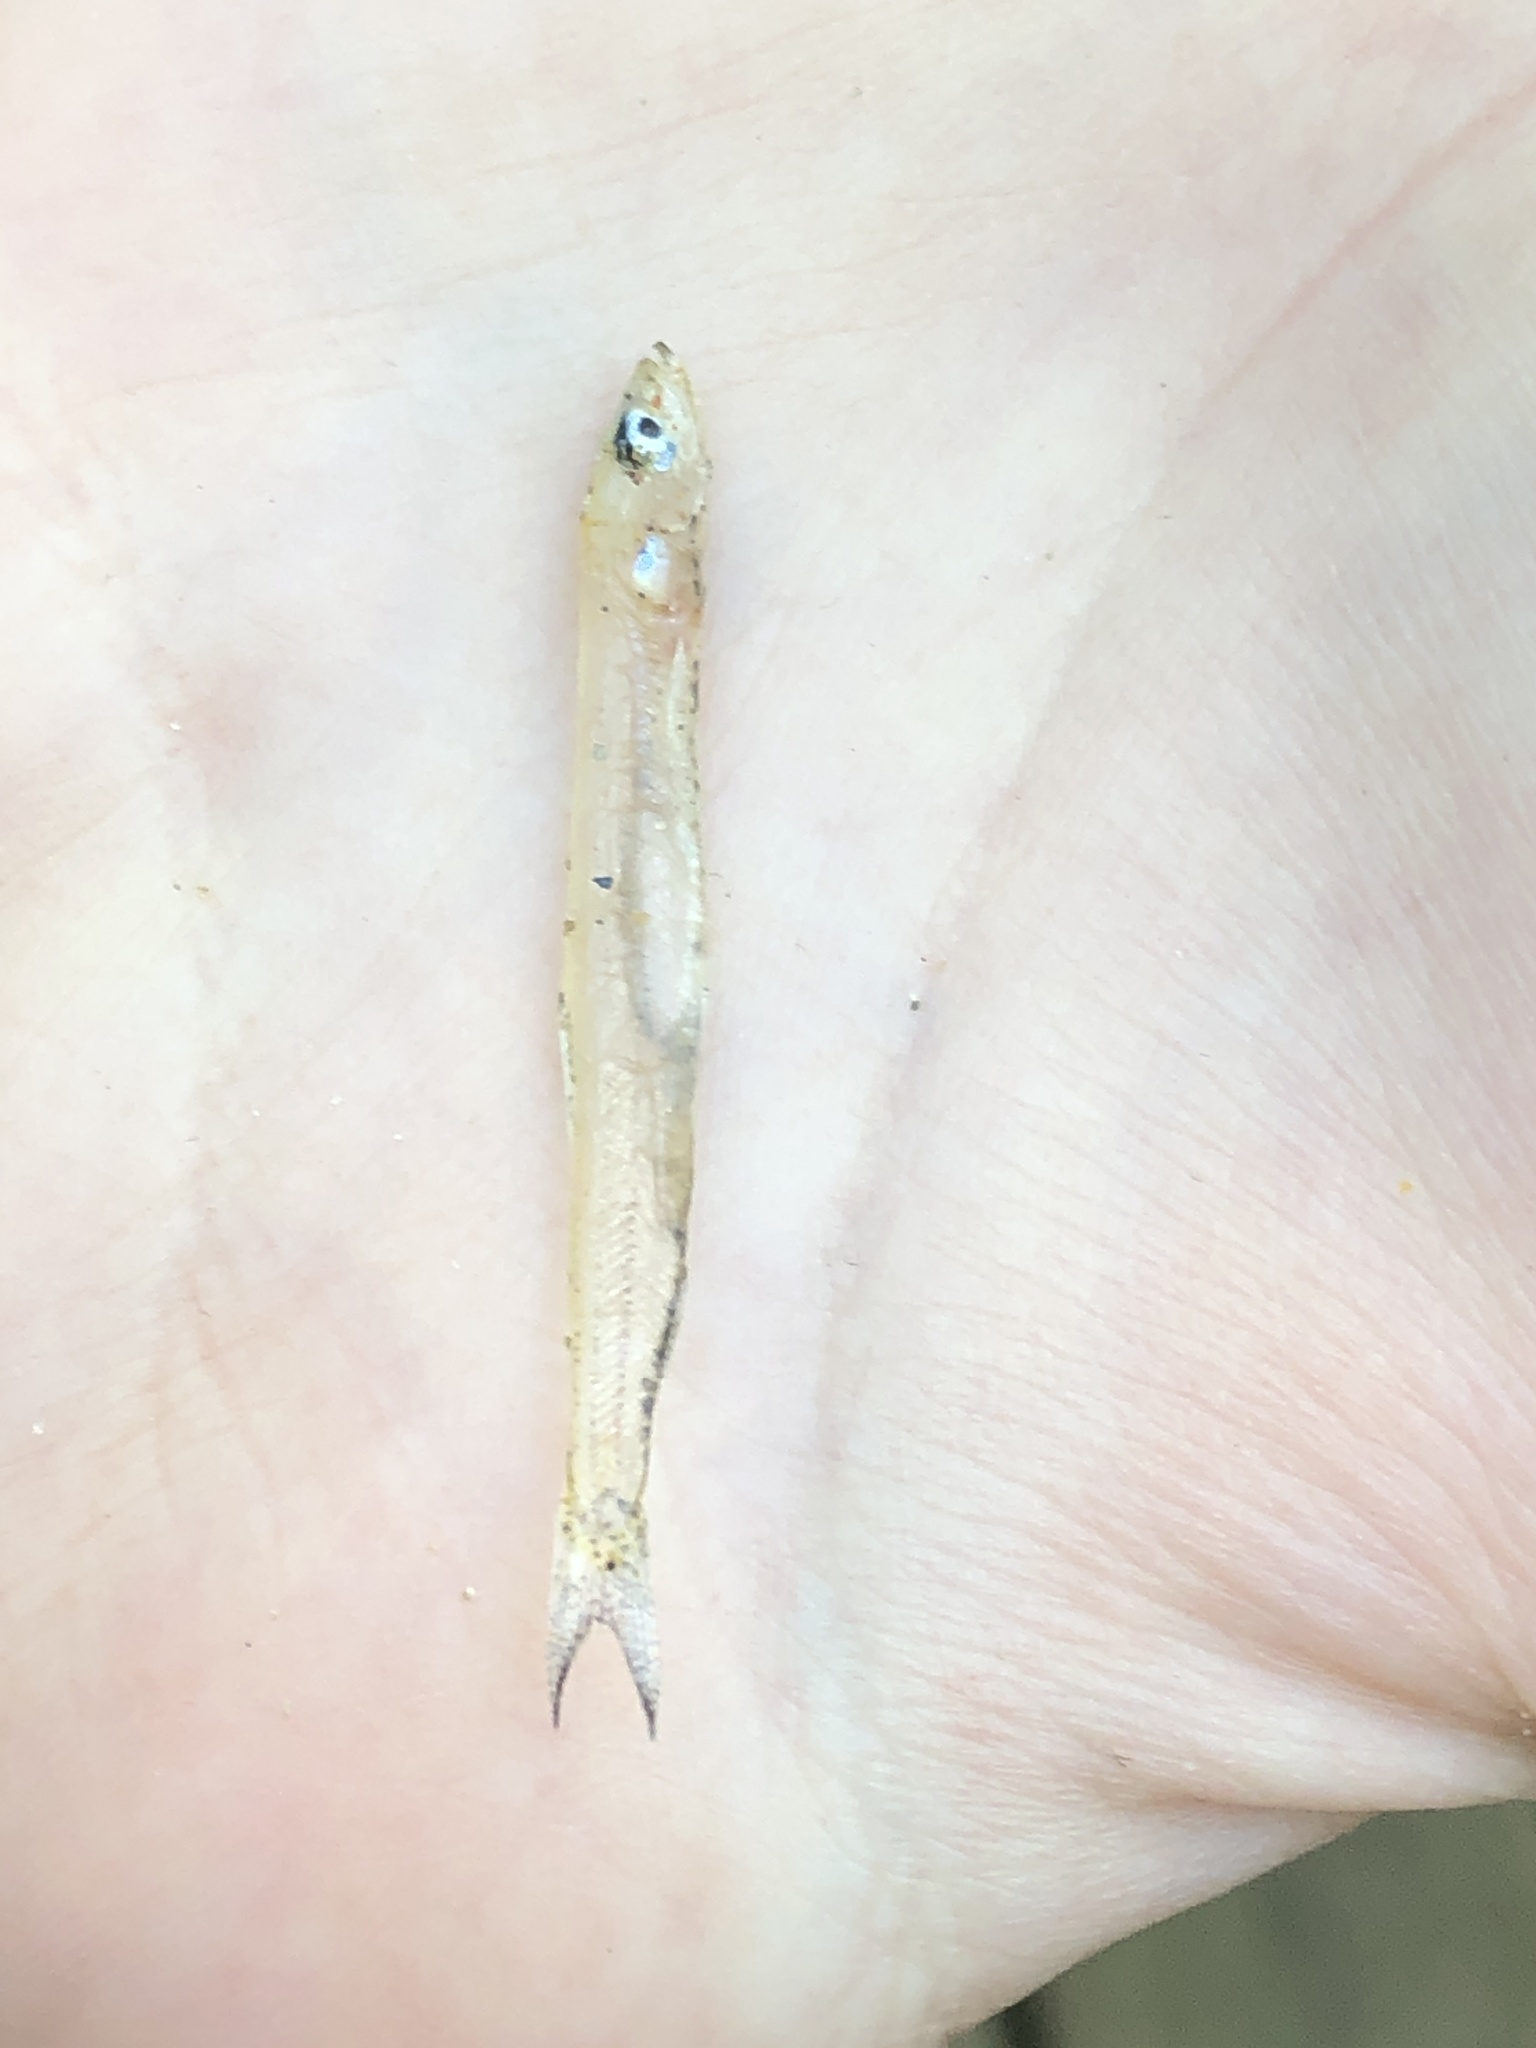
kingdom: Animalia
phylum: Chordata
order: Osmeriformes
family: Osmeridae
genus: Osmerus
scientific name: Osmerus mordax
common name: Rainbow smelt
